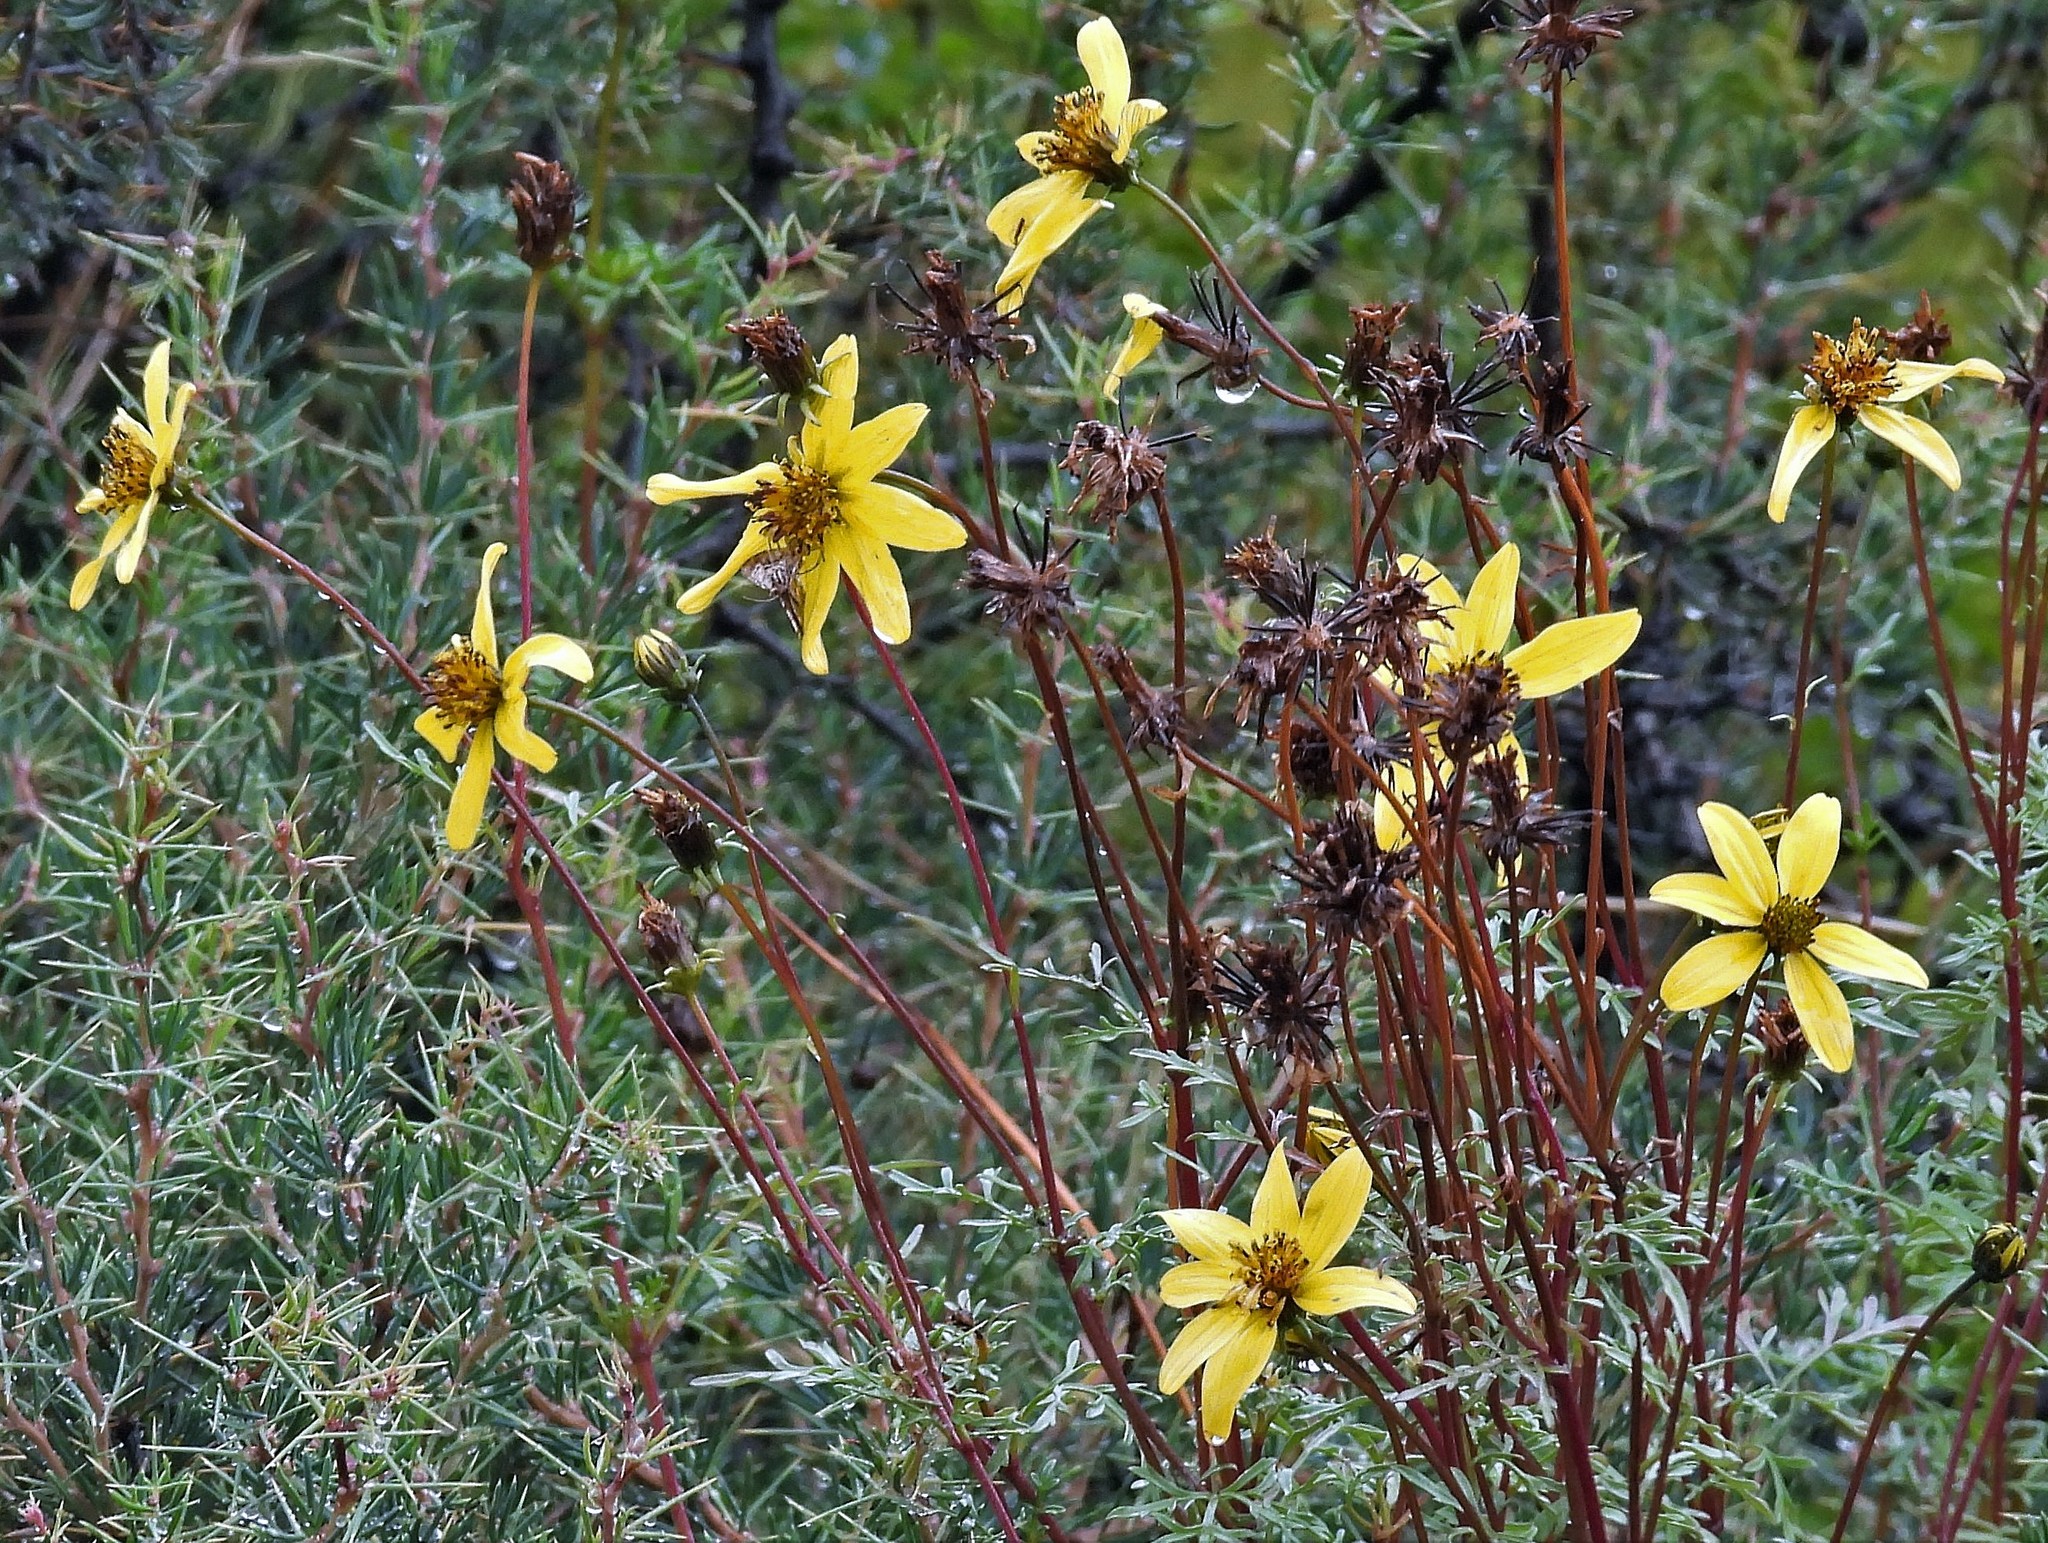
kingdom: Plantae
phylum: Tracheophyta
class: Magnoliopsida
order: Asterales
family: Asteraceae
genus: Bidens
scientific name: Bidens andicola
